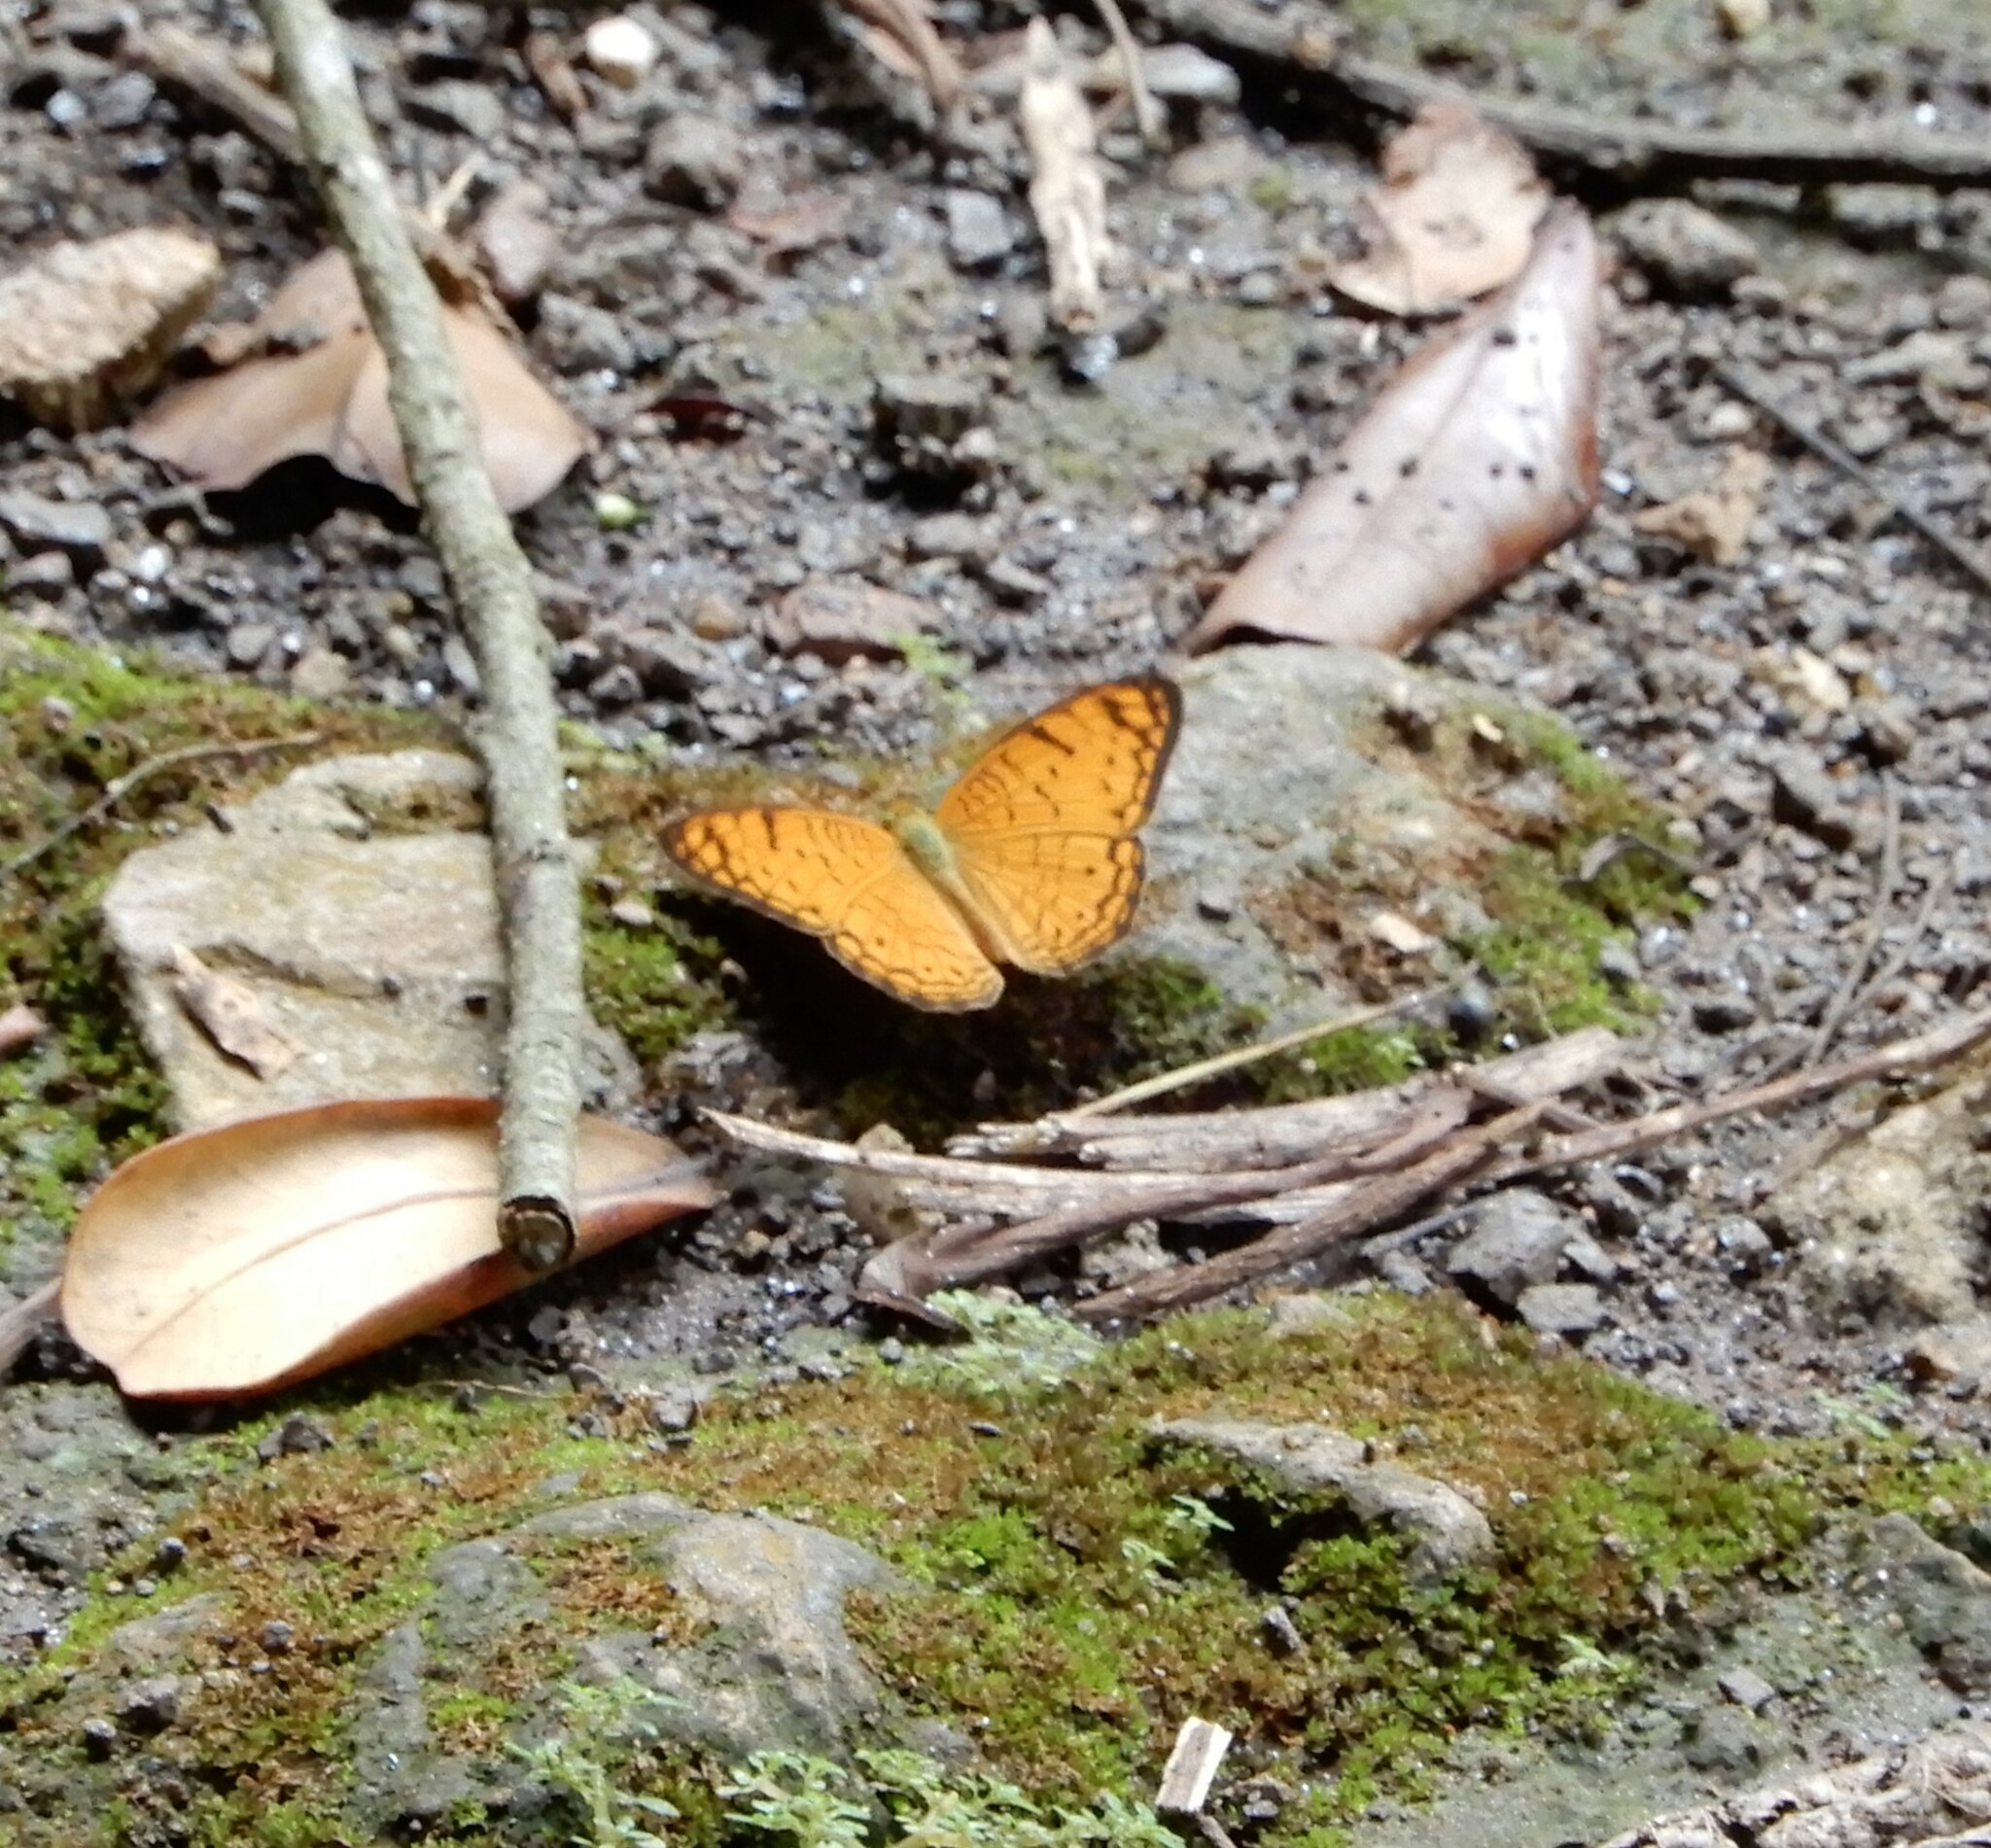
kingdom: Animalia
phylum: Arthropoda
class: Insecta
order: Lepidoptera
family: Nymphalidae
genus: Phalanta
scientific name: Phalanta alcippe
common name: Small leopard
